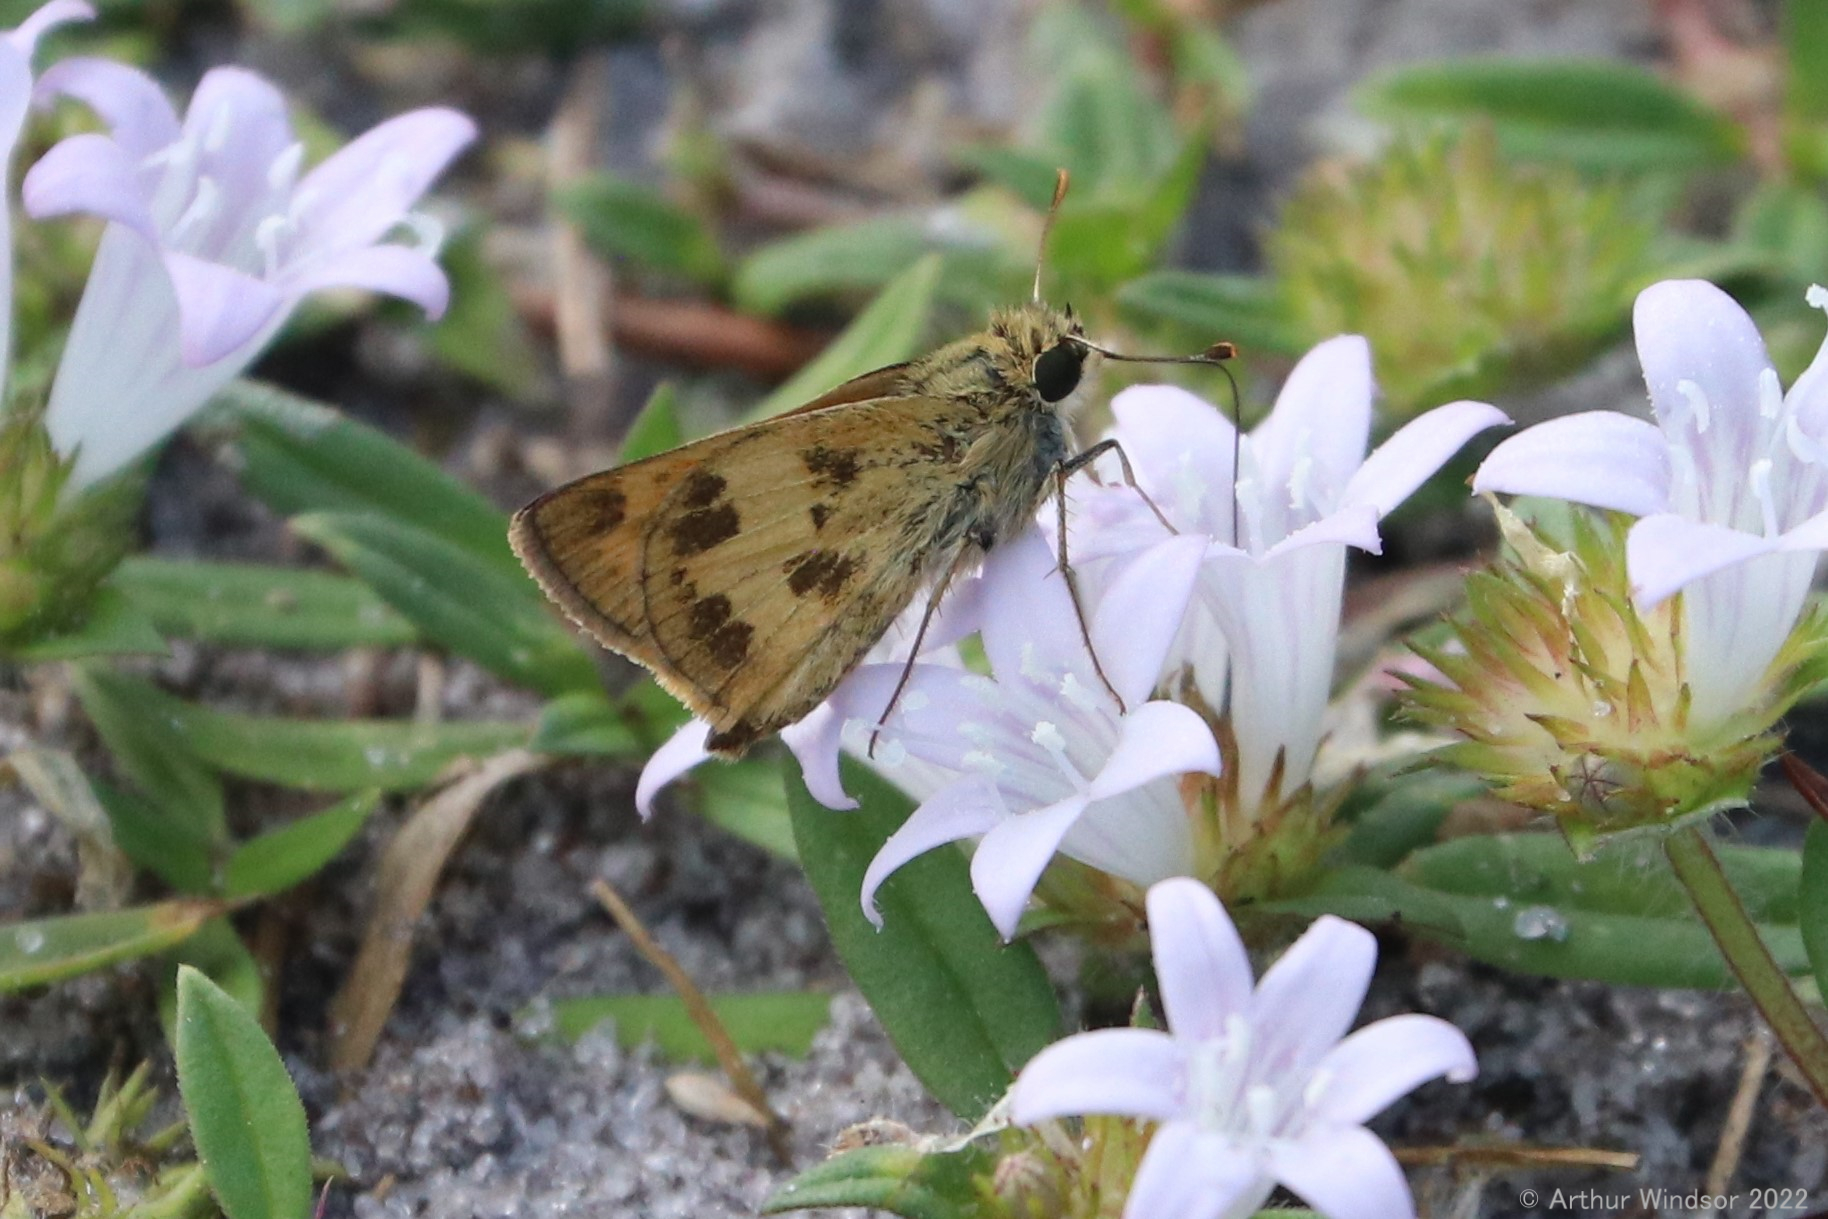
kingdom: Animalia
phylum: Arthropoda
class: Insecta
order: Lepidoptera
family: Hesperiidae
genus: Polites
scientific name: Polites vibex
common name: Whirlabout
